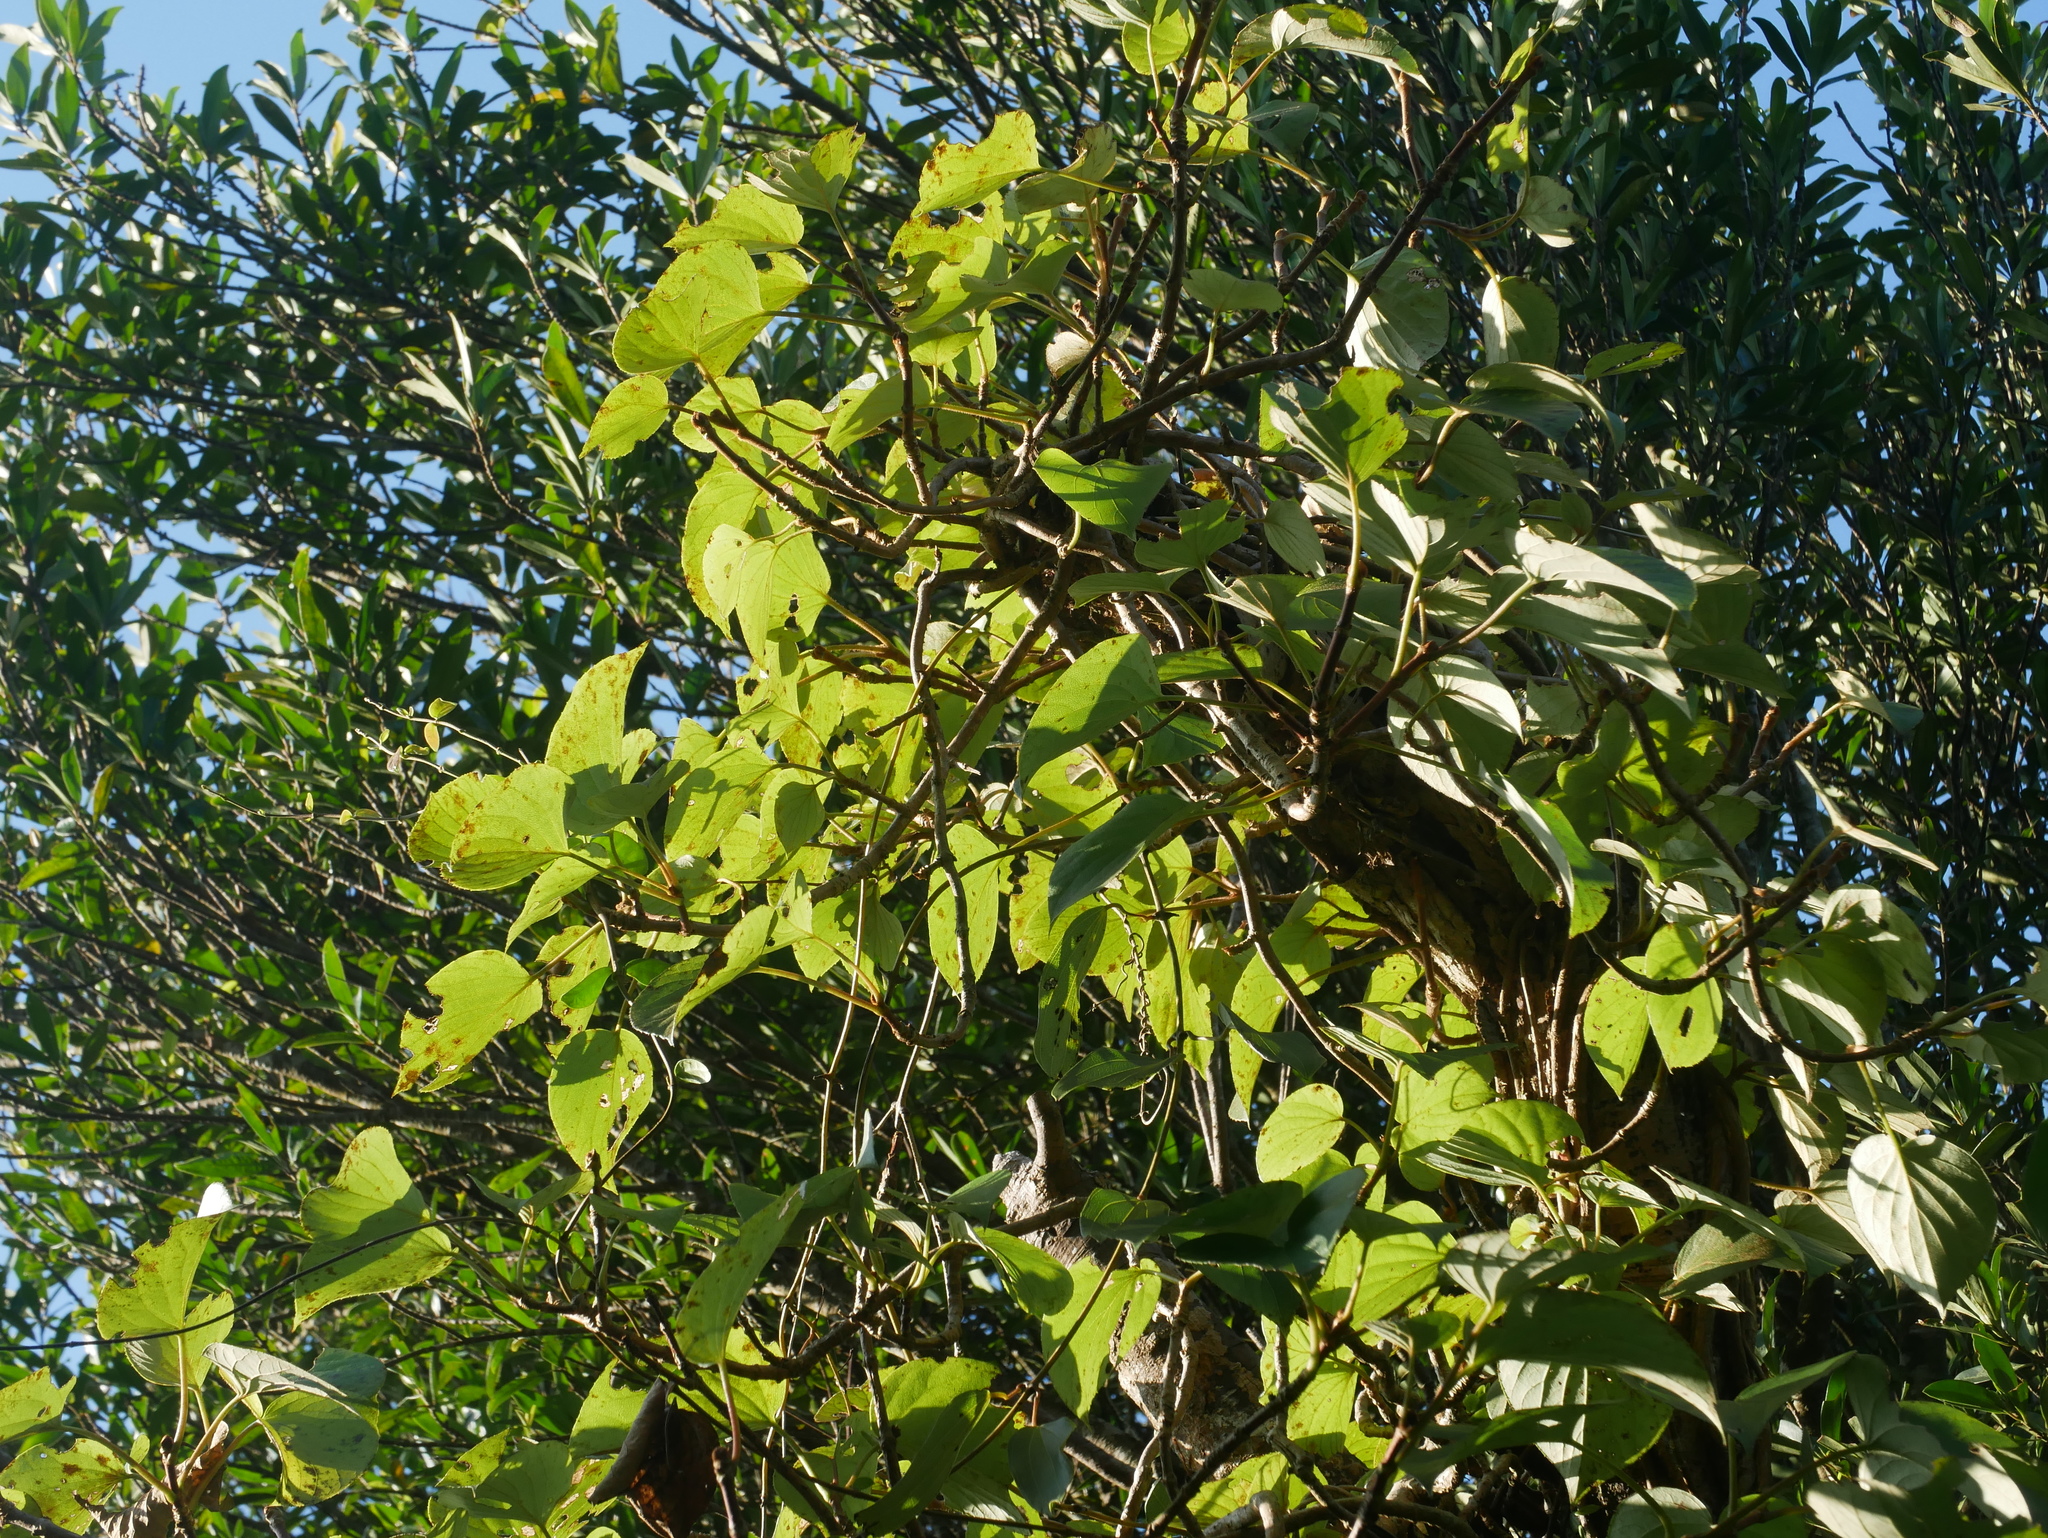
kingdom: Plantae
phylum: Tracheophyta
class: Magnoliopsida
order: Cornales
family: Hydrangeaceae
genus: Hydrangea
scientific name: Hydrangea fauriei
